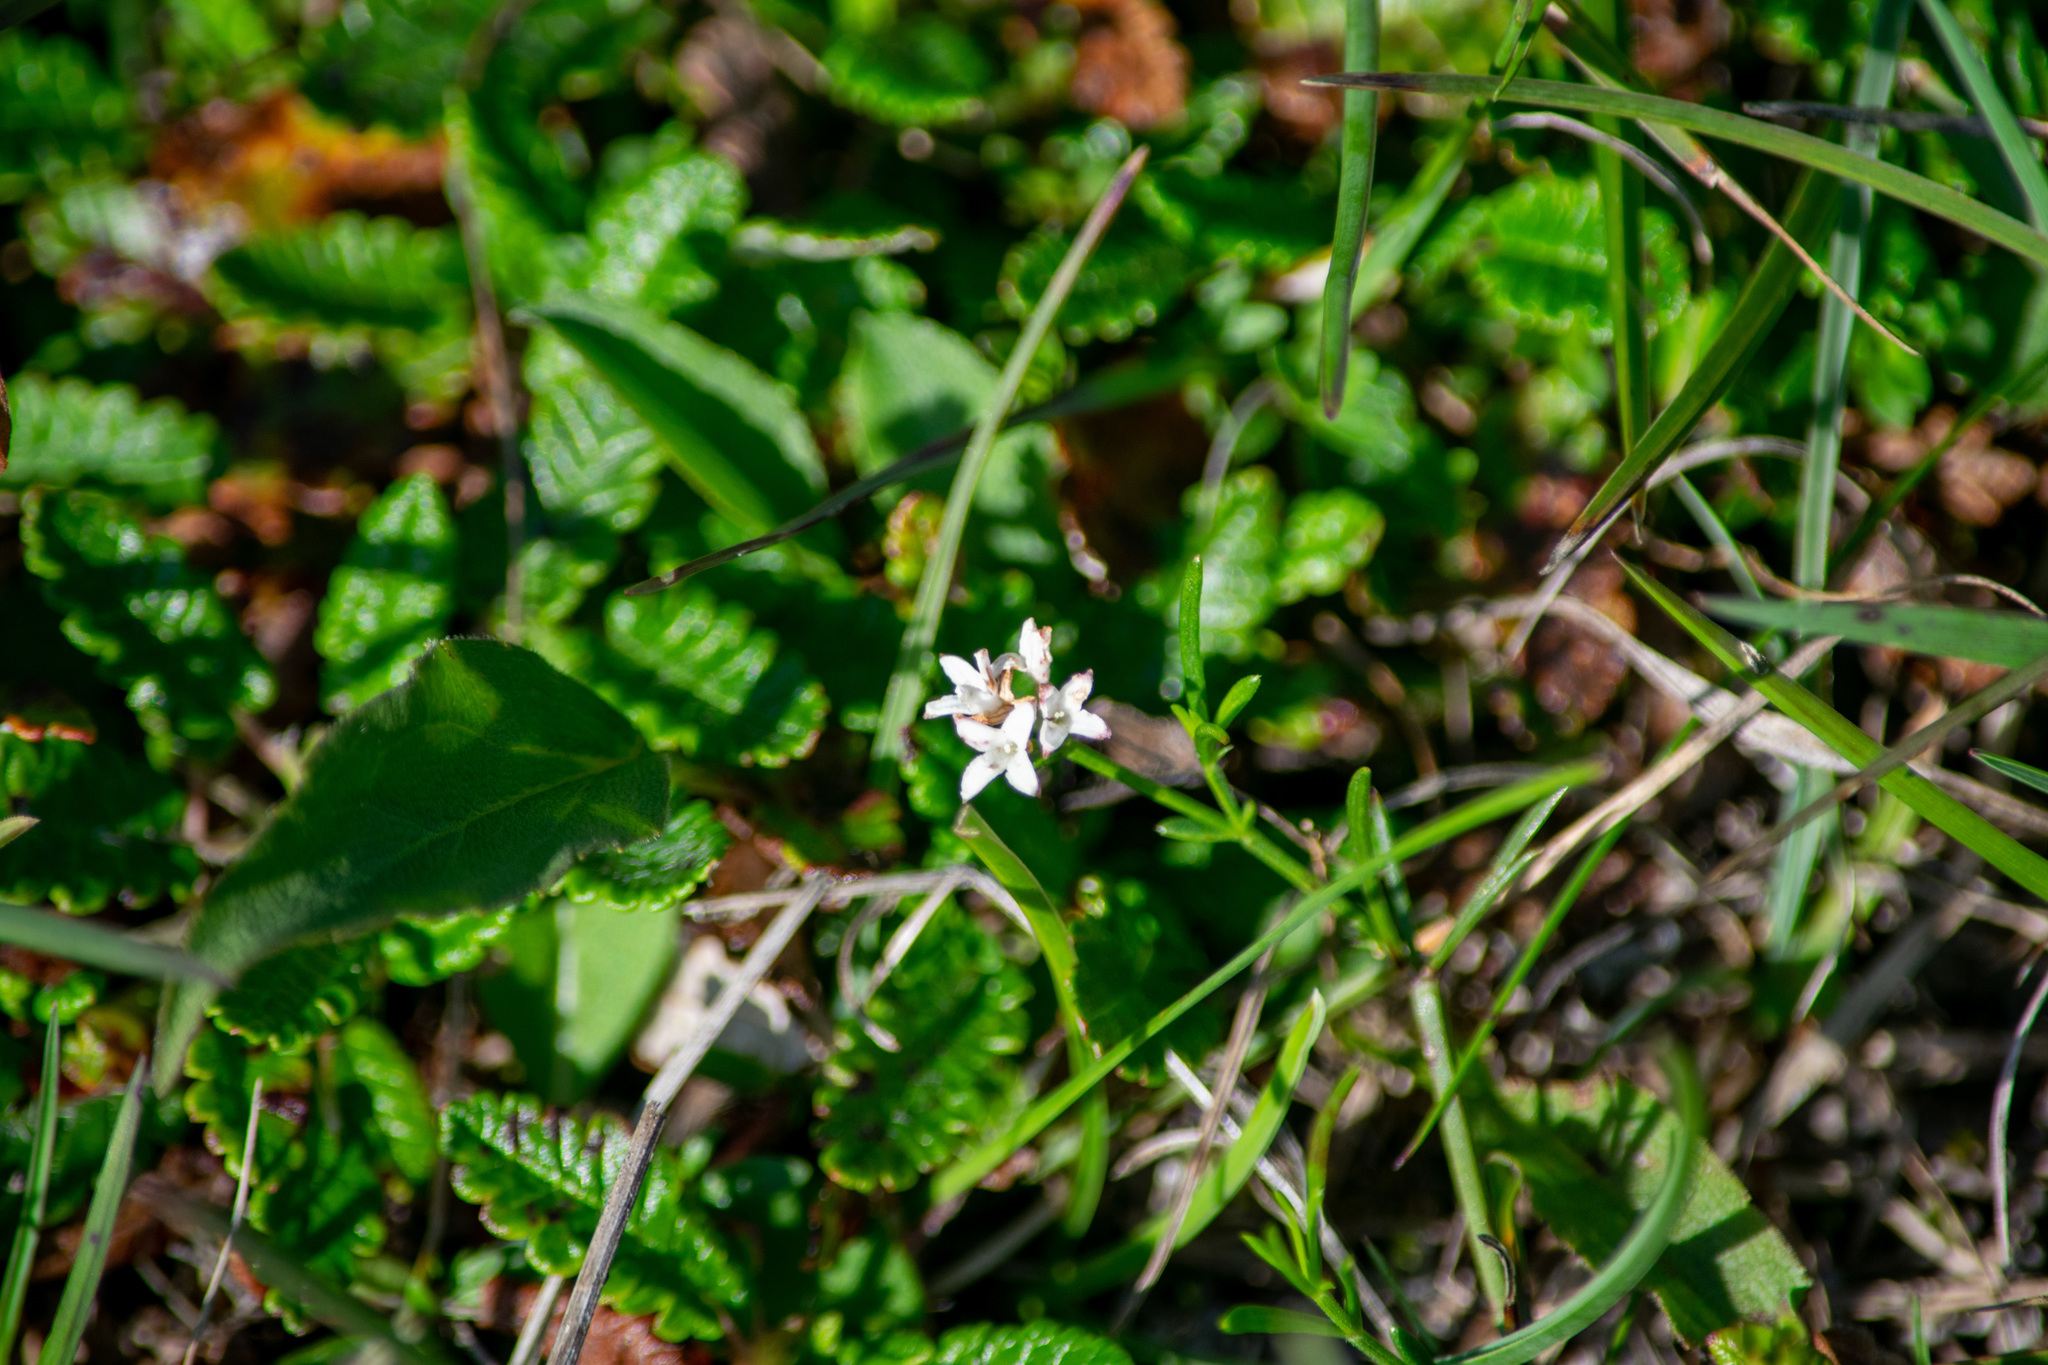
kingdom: Plantae
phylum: Tracheophyta
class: Magnoliopsida
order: Gentianales
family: Rubiaceae
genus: Cynanchica
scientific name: Cynanchica pyrenaica
